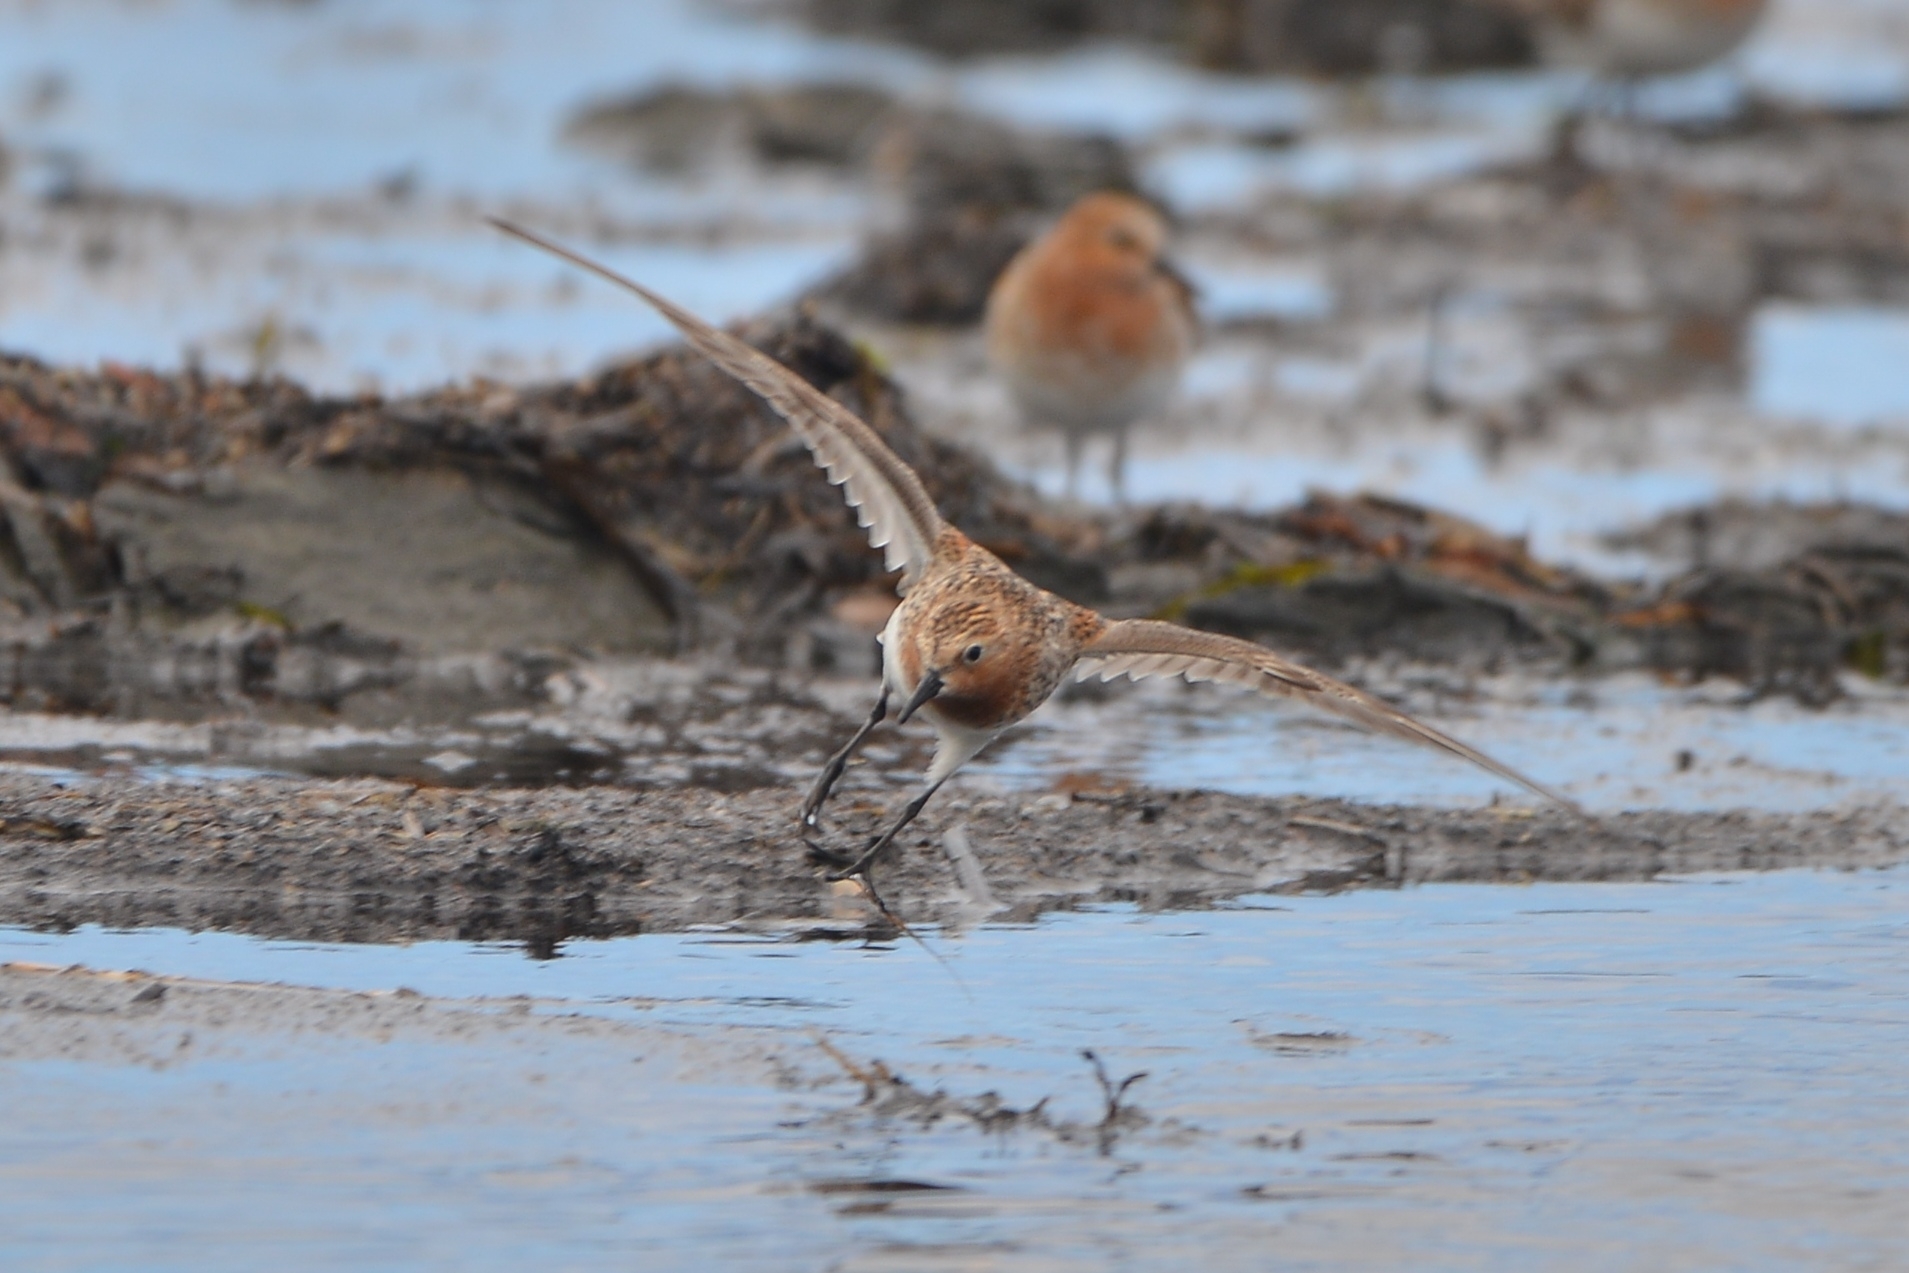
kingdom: Animalia
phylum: Chordata
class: Aves
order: Charadriiformes
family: Scolopacidae
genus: Calidris
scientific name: Calidris ruficollis
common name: Red-necked stint
